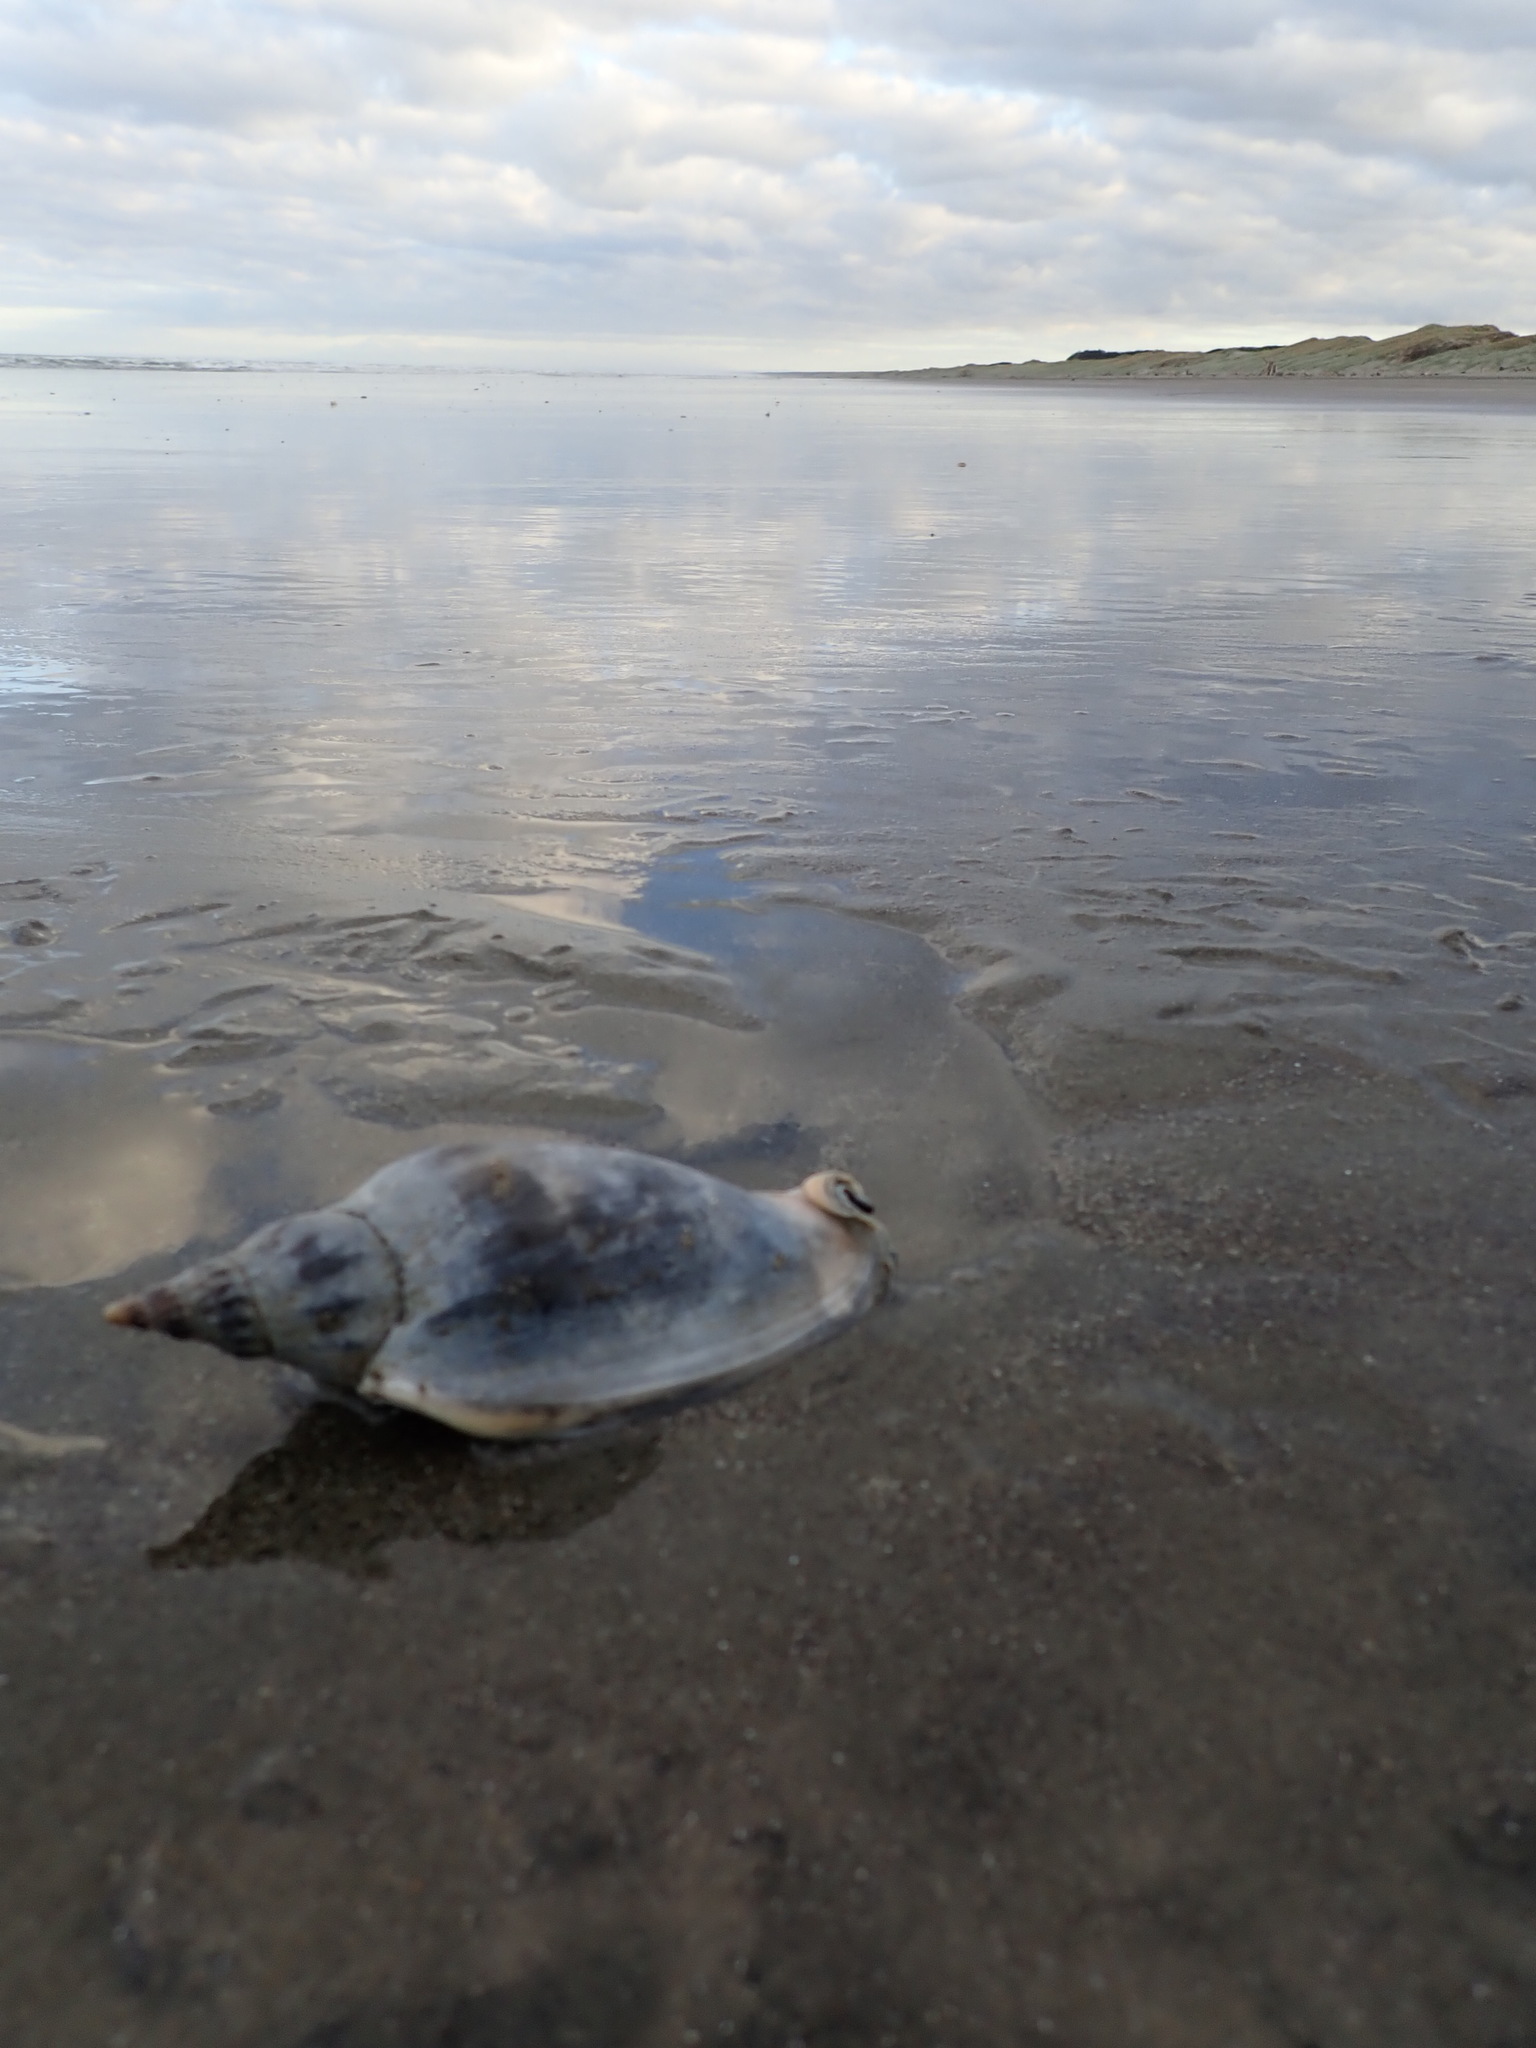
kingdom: Animalia
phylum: Mollusca
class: Gastropoda
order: Neogastropoda
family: Volutidae
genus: Alcithoe
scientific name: Alcithoe arabica
